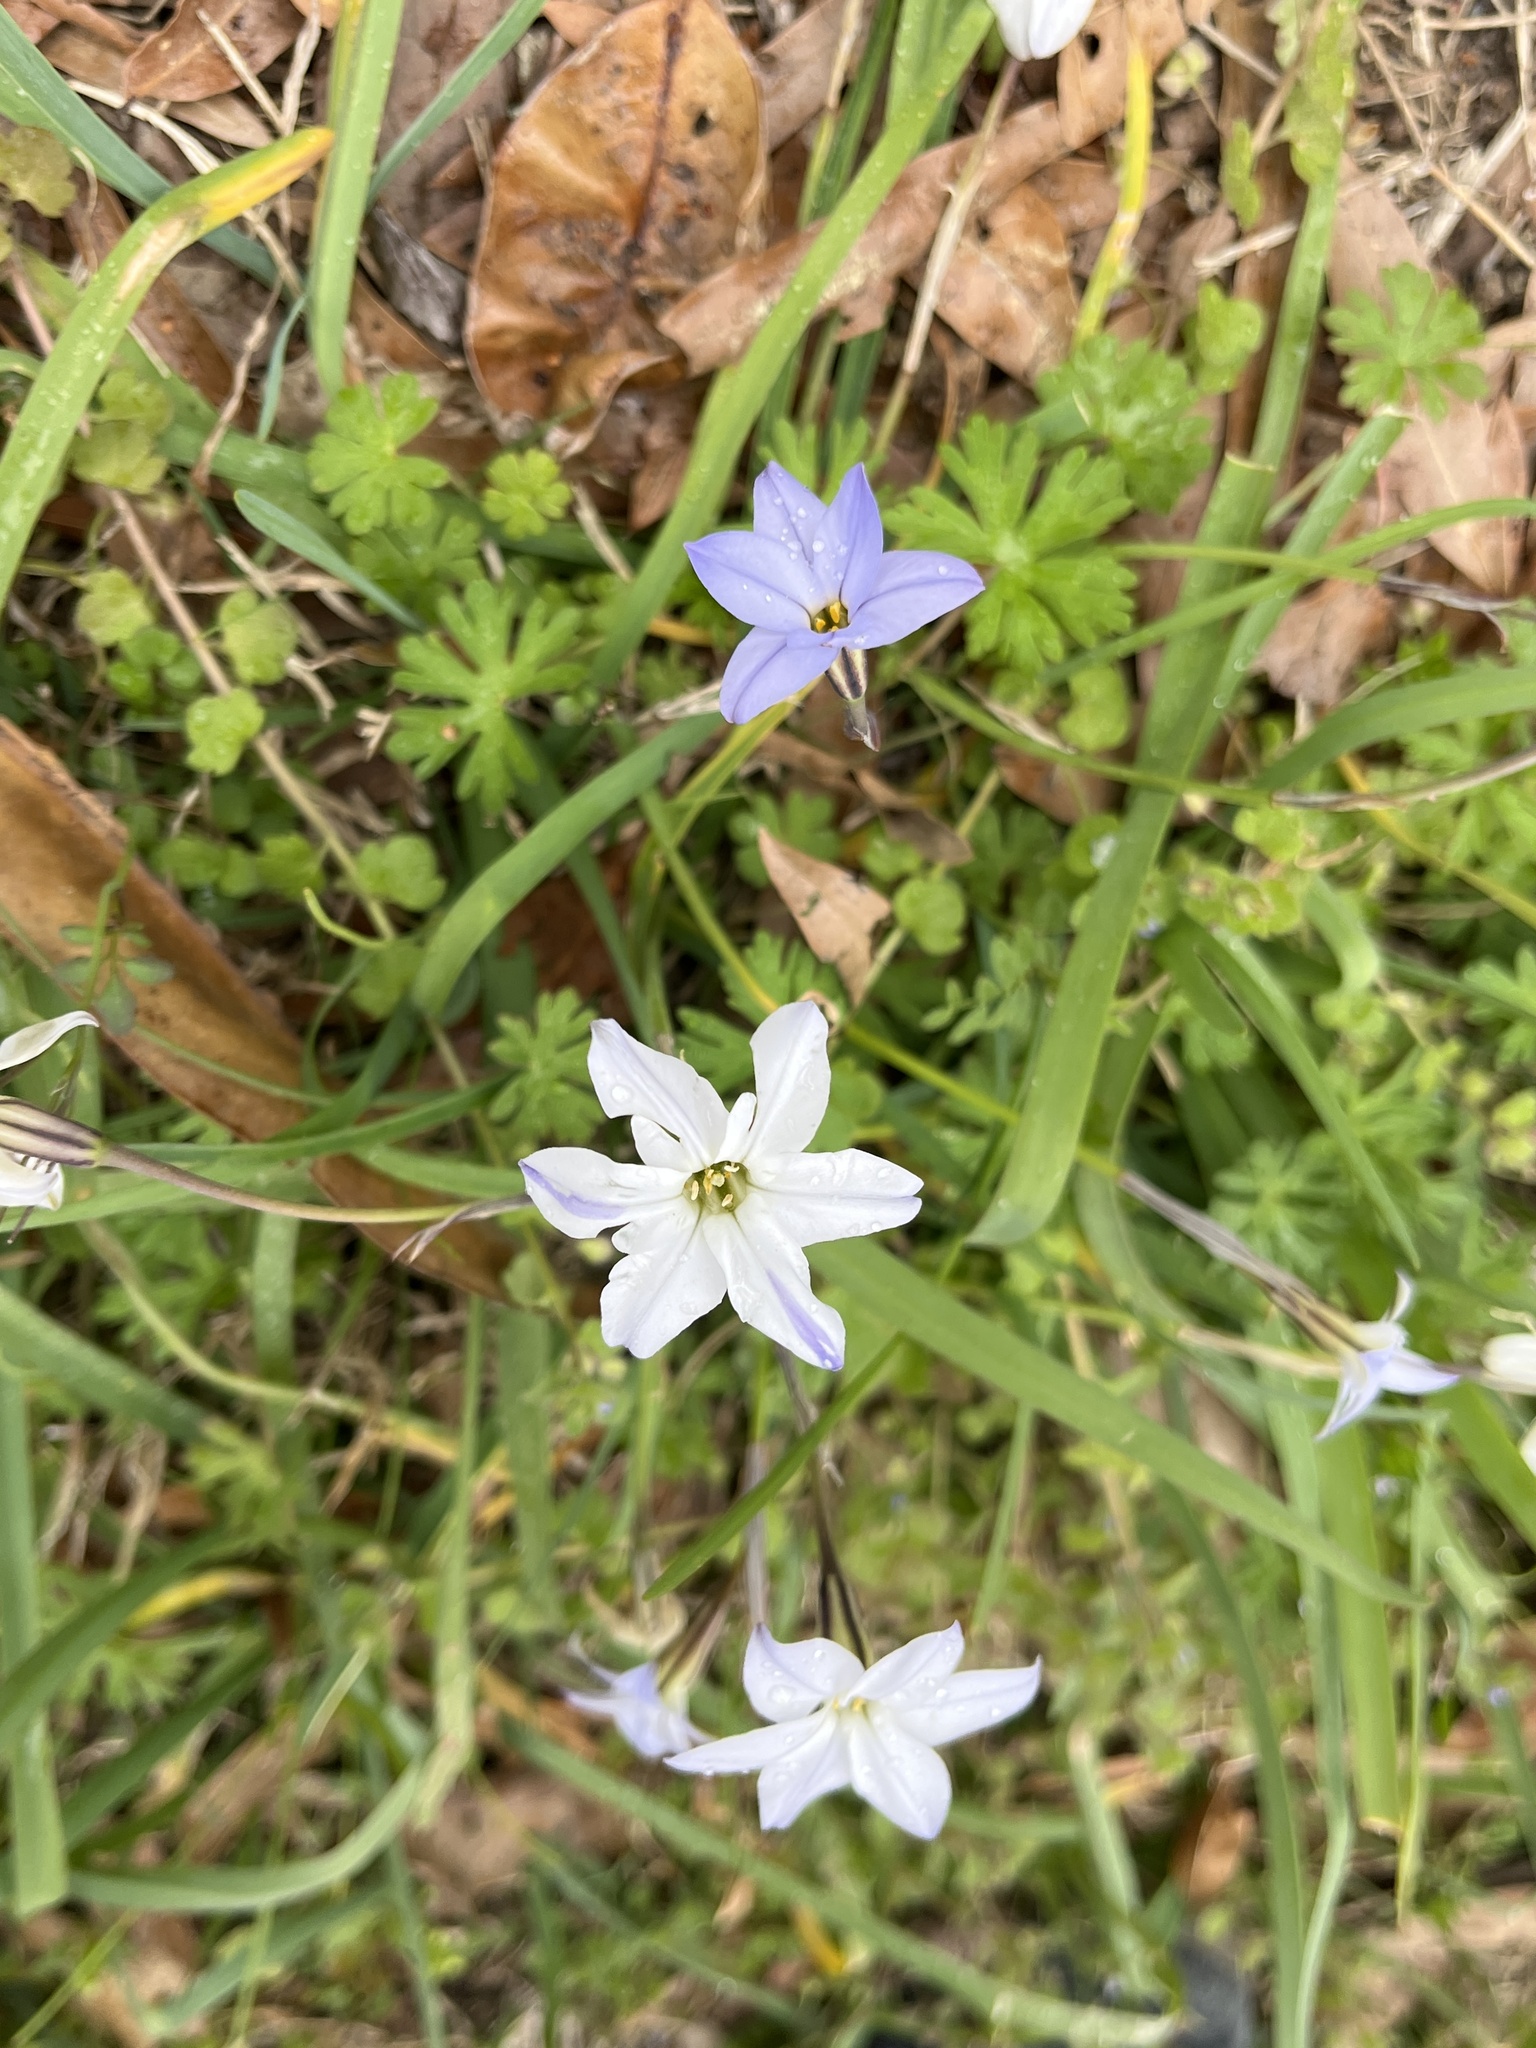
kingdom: Plantae
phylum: Tracheophyta
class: Liliopsida
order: Asparagales
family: Amaryllidaceae
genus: Ipheion
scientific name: Ipheion uniflorum
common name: Spring starflower
